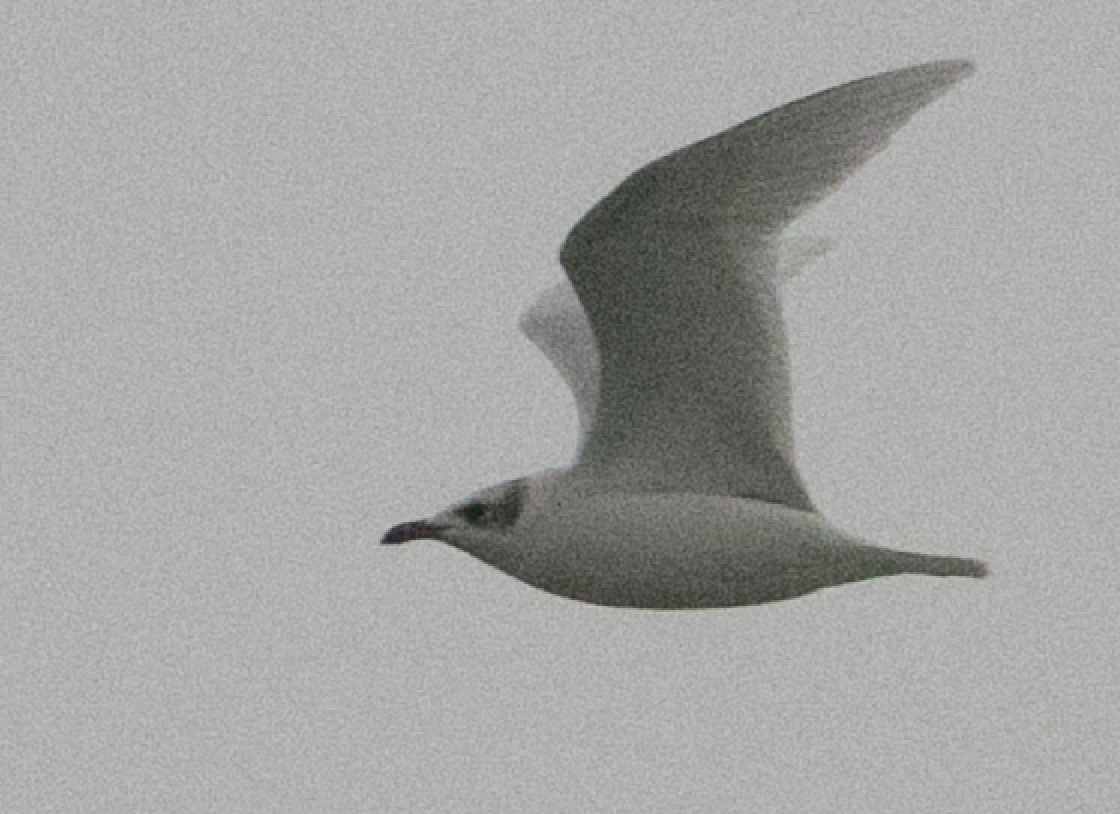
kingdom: Animalia
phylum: Chordata
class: Aves
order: Charadriiformes
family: Laridae
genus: Ichthyaetus
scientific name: Ichthyaetus melanocephalus
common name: Mediterranean gull
